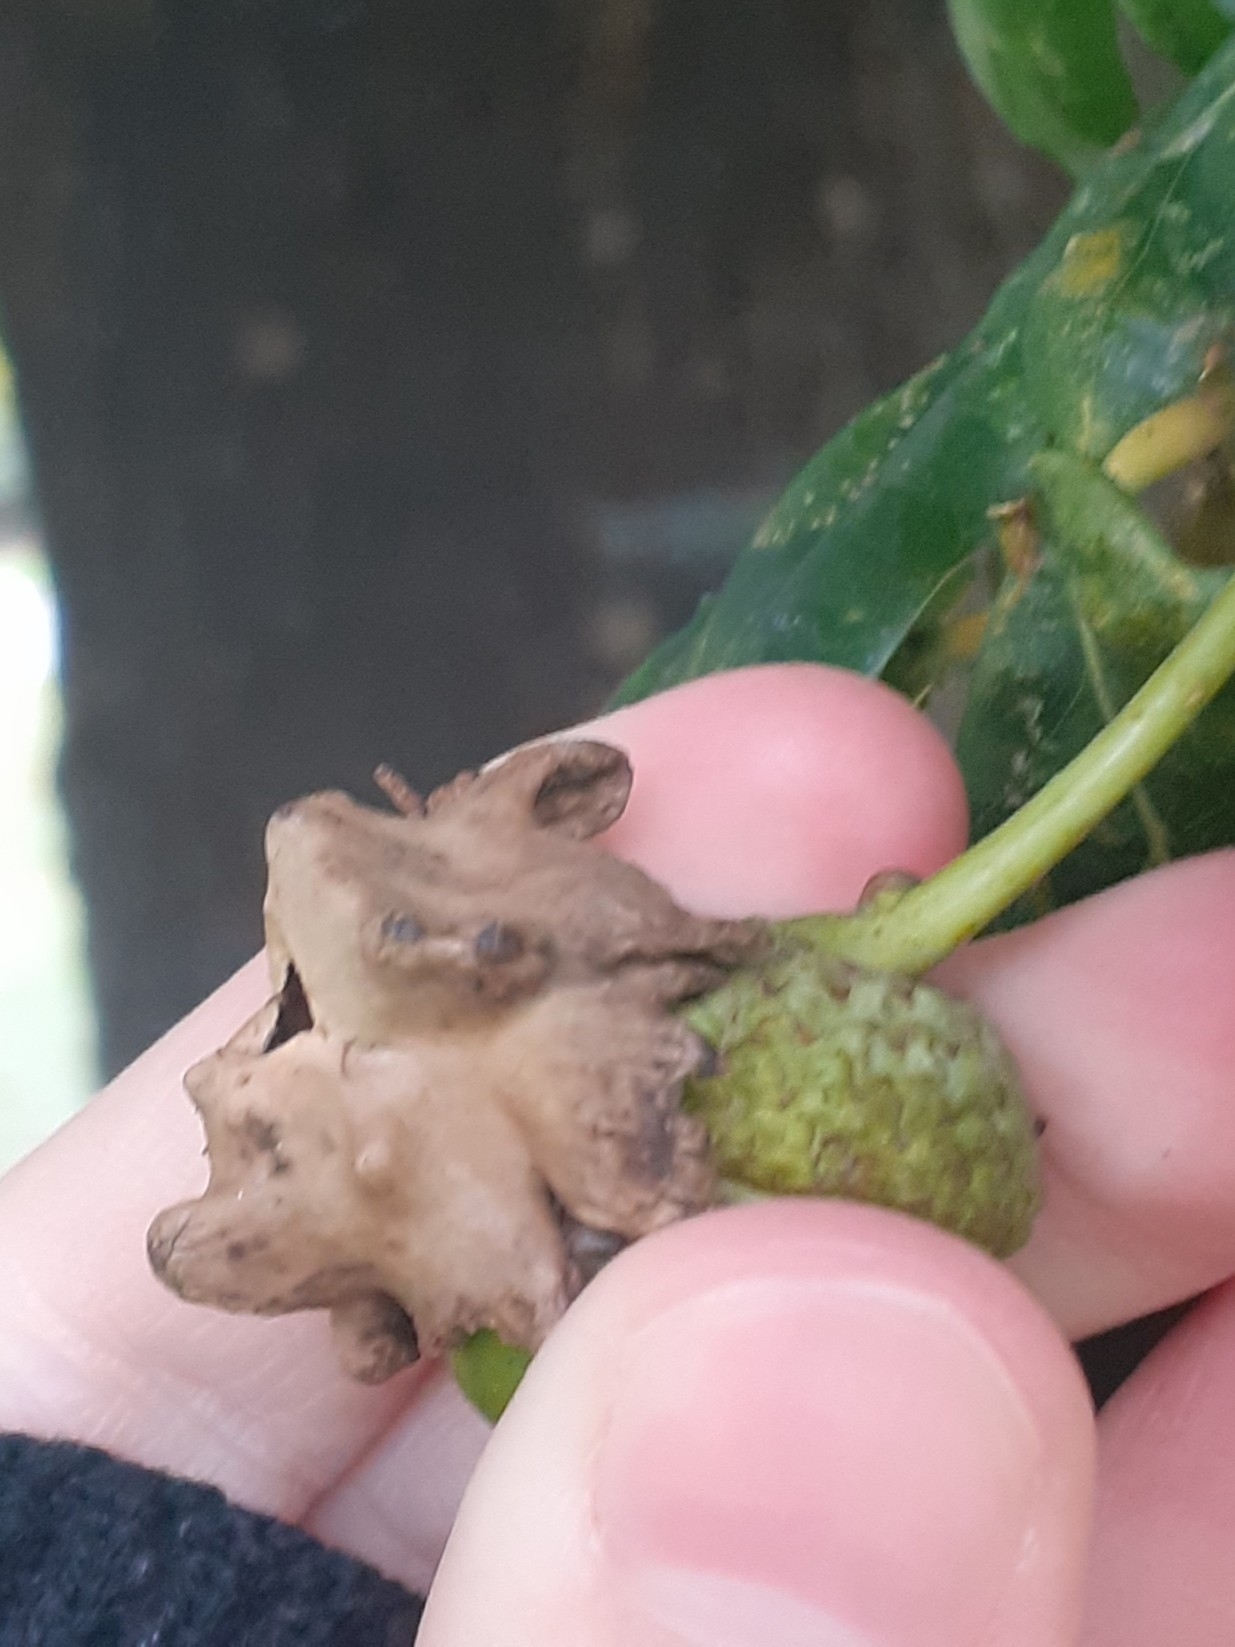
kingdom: Animalia
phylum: Arthropoda
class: Insecta
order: Hymenoptera
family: Cynipidae
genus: Andricus
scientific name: Andricus quercuscalicis
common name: Knopper gall
